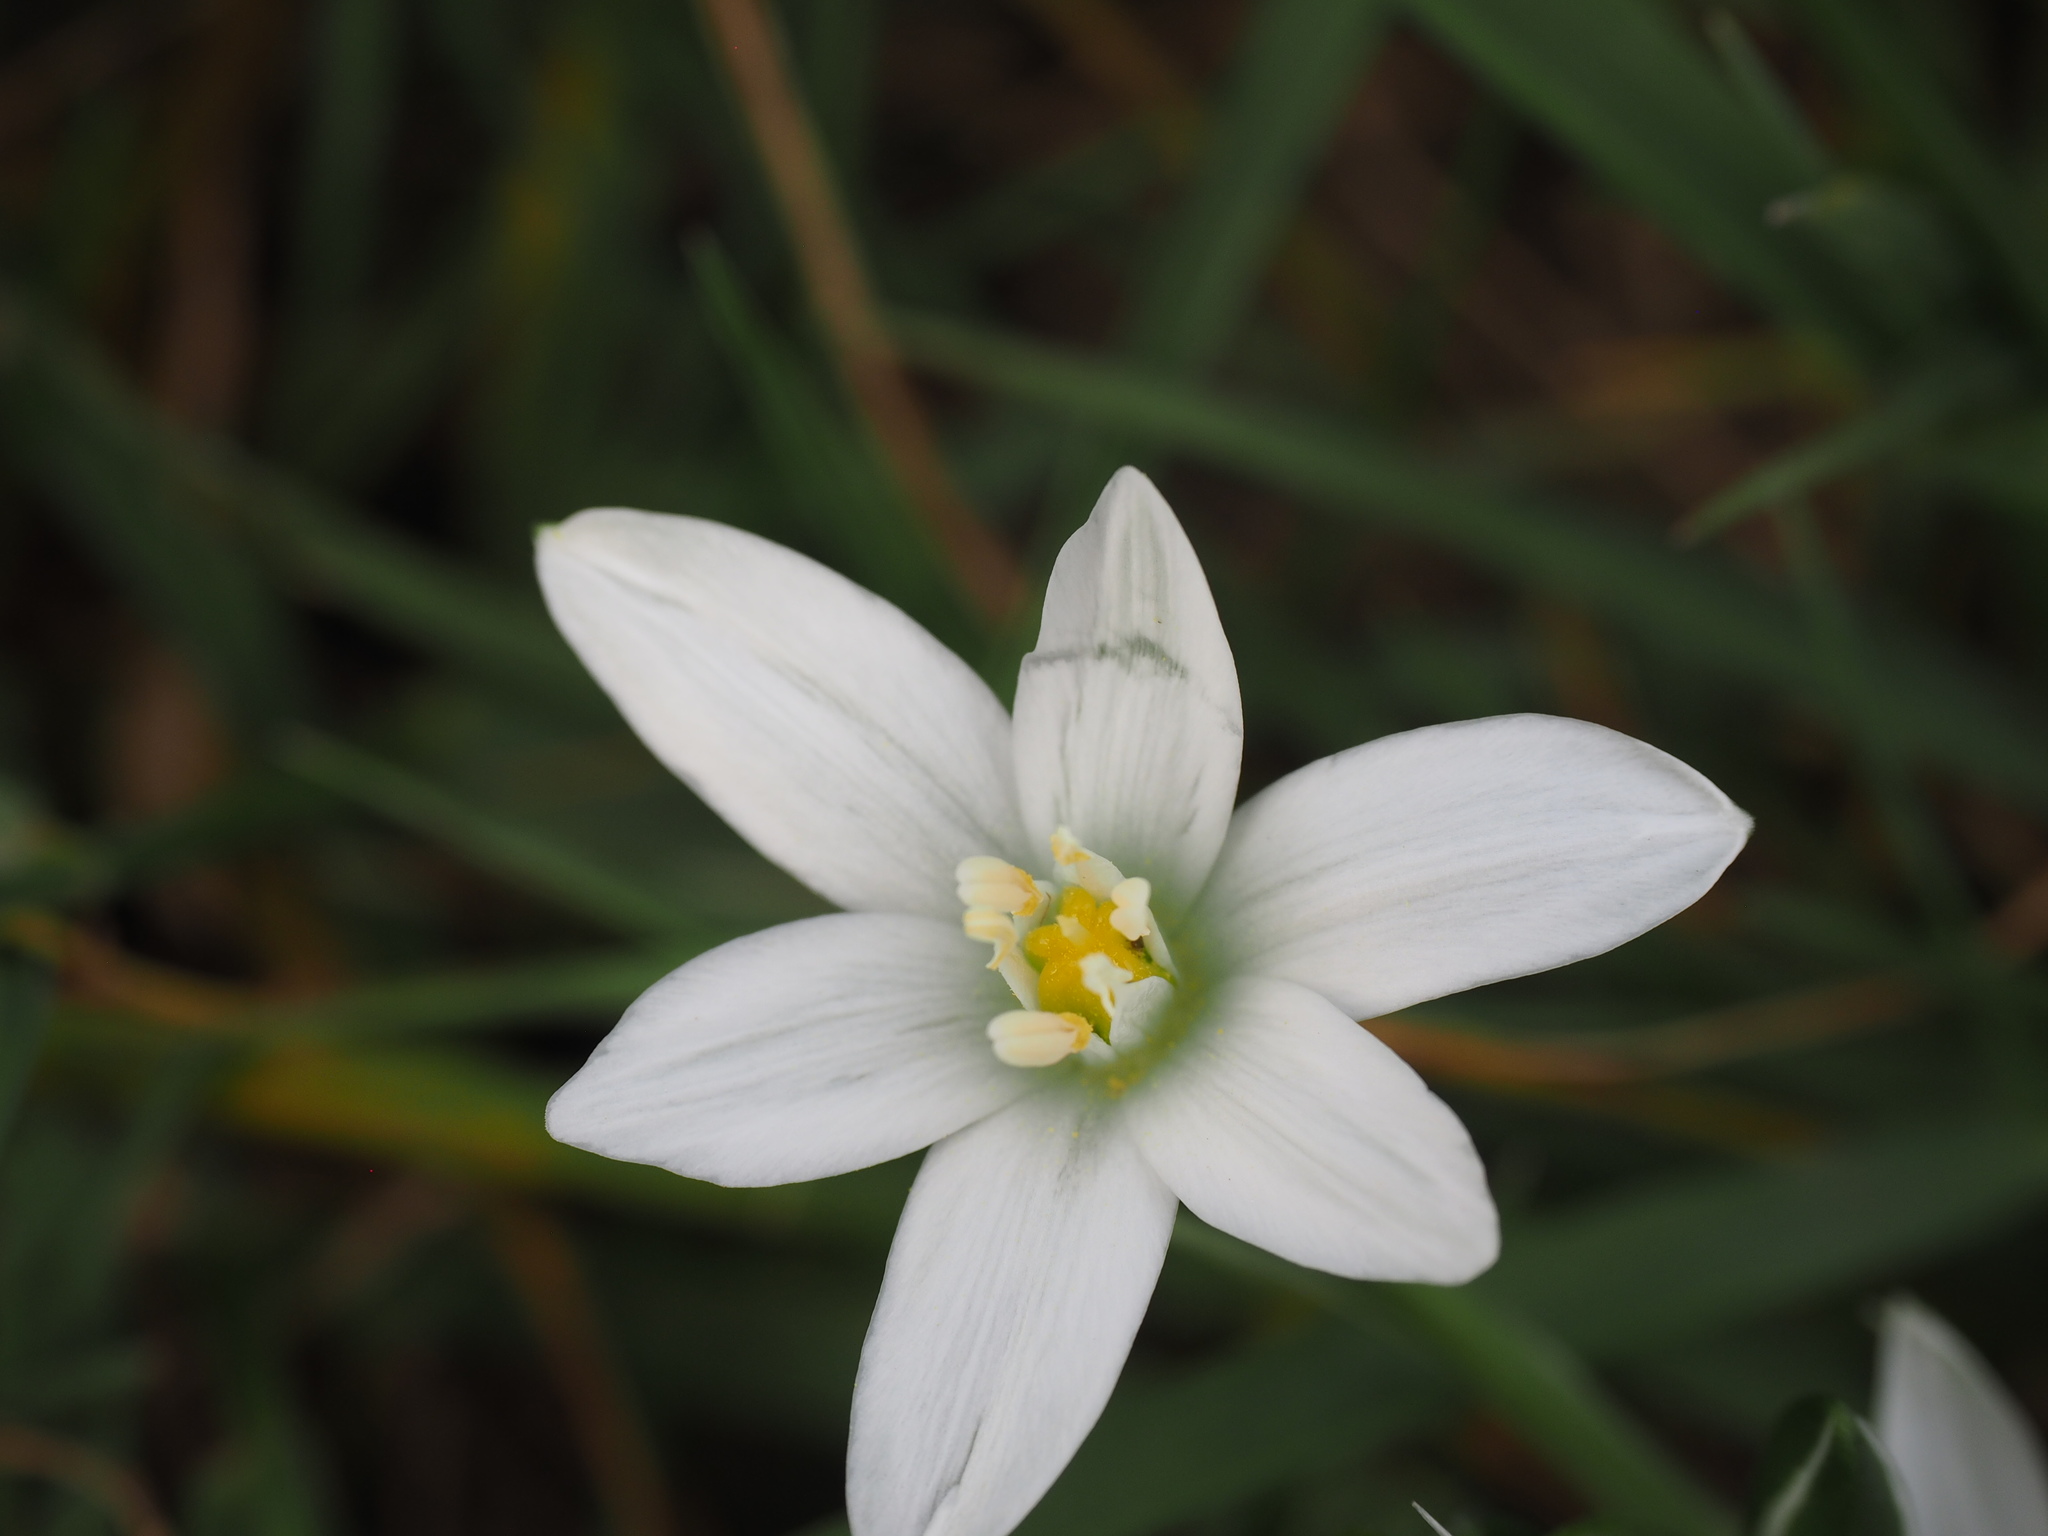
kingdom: Plantae
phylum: Tracheophyta
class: Liliopsida
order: Asparagales
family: Asparagaceae
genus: Ornithogalum
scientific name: Ornithogalum umbellatum
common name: Garden star-of-bethlehem
